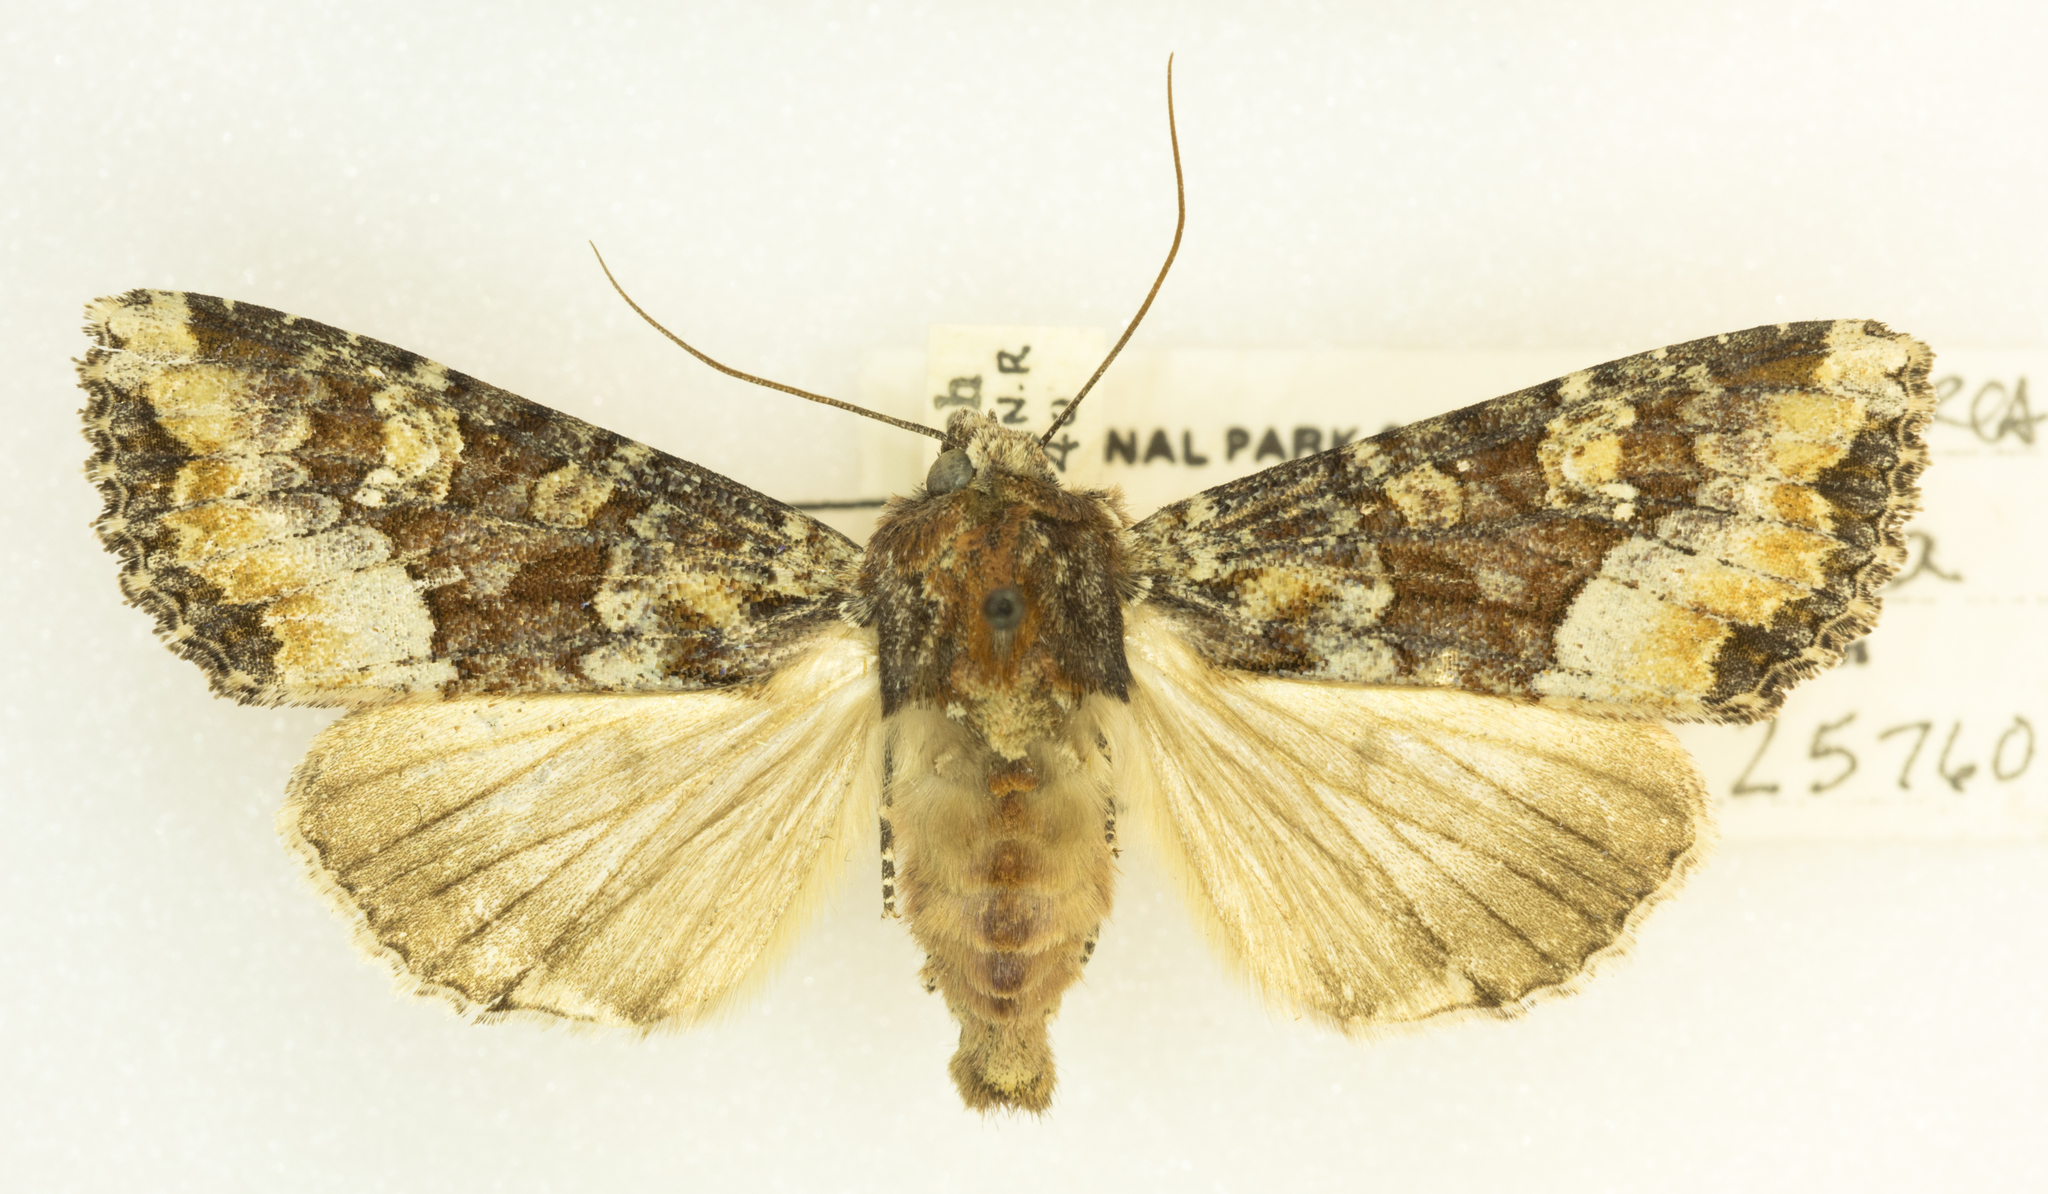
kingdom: Animalia
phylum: Arthropoda
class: Insecta
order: Lepidoptera
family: Noctuidae
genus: Apamea
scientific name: Apamea amputatrix
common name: Yellow-headed cutworm moth
